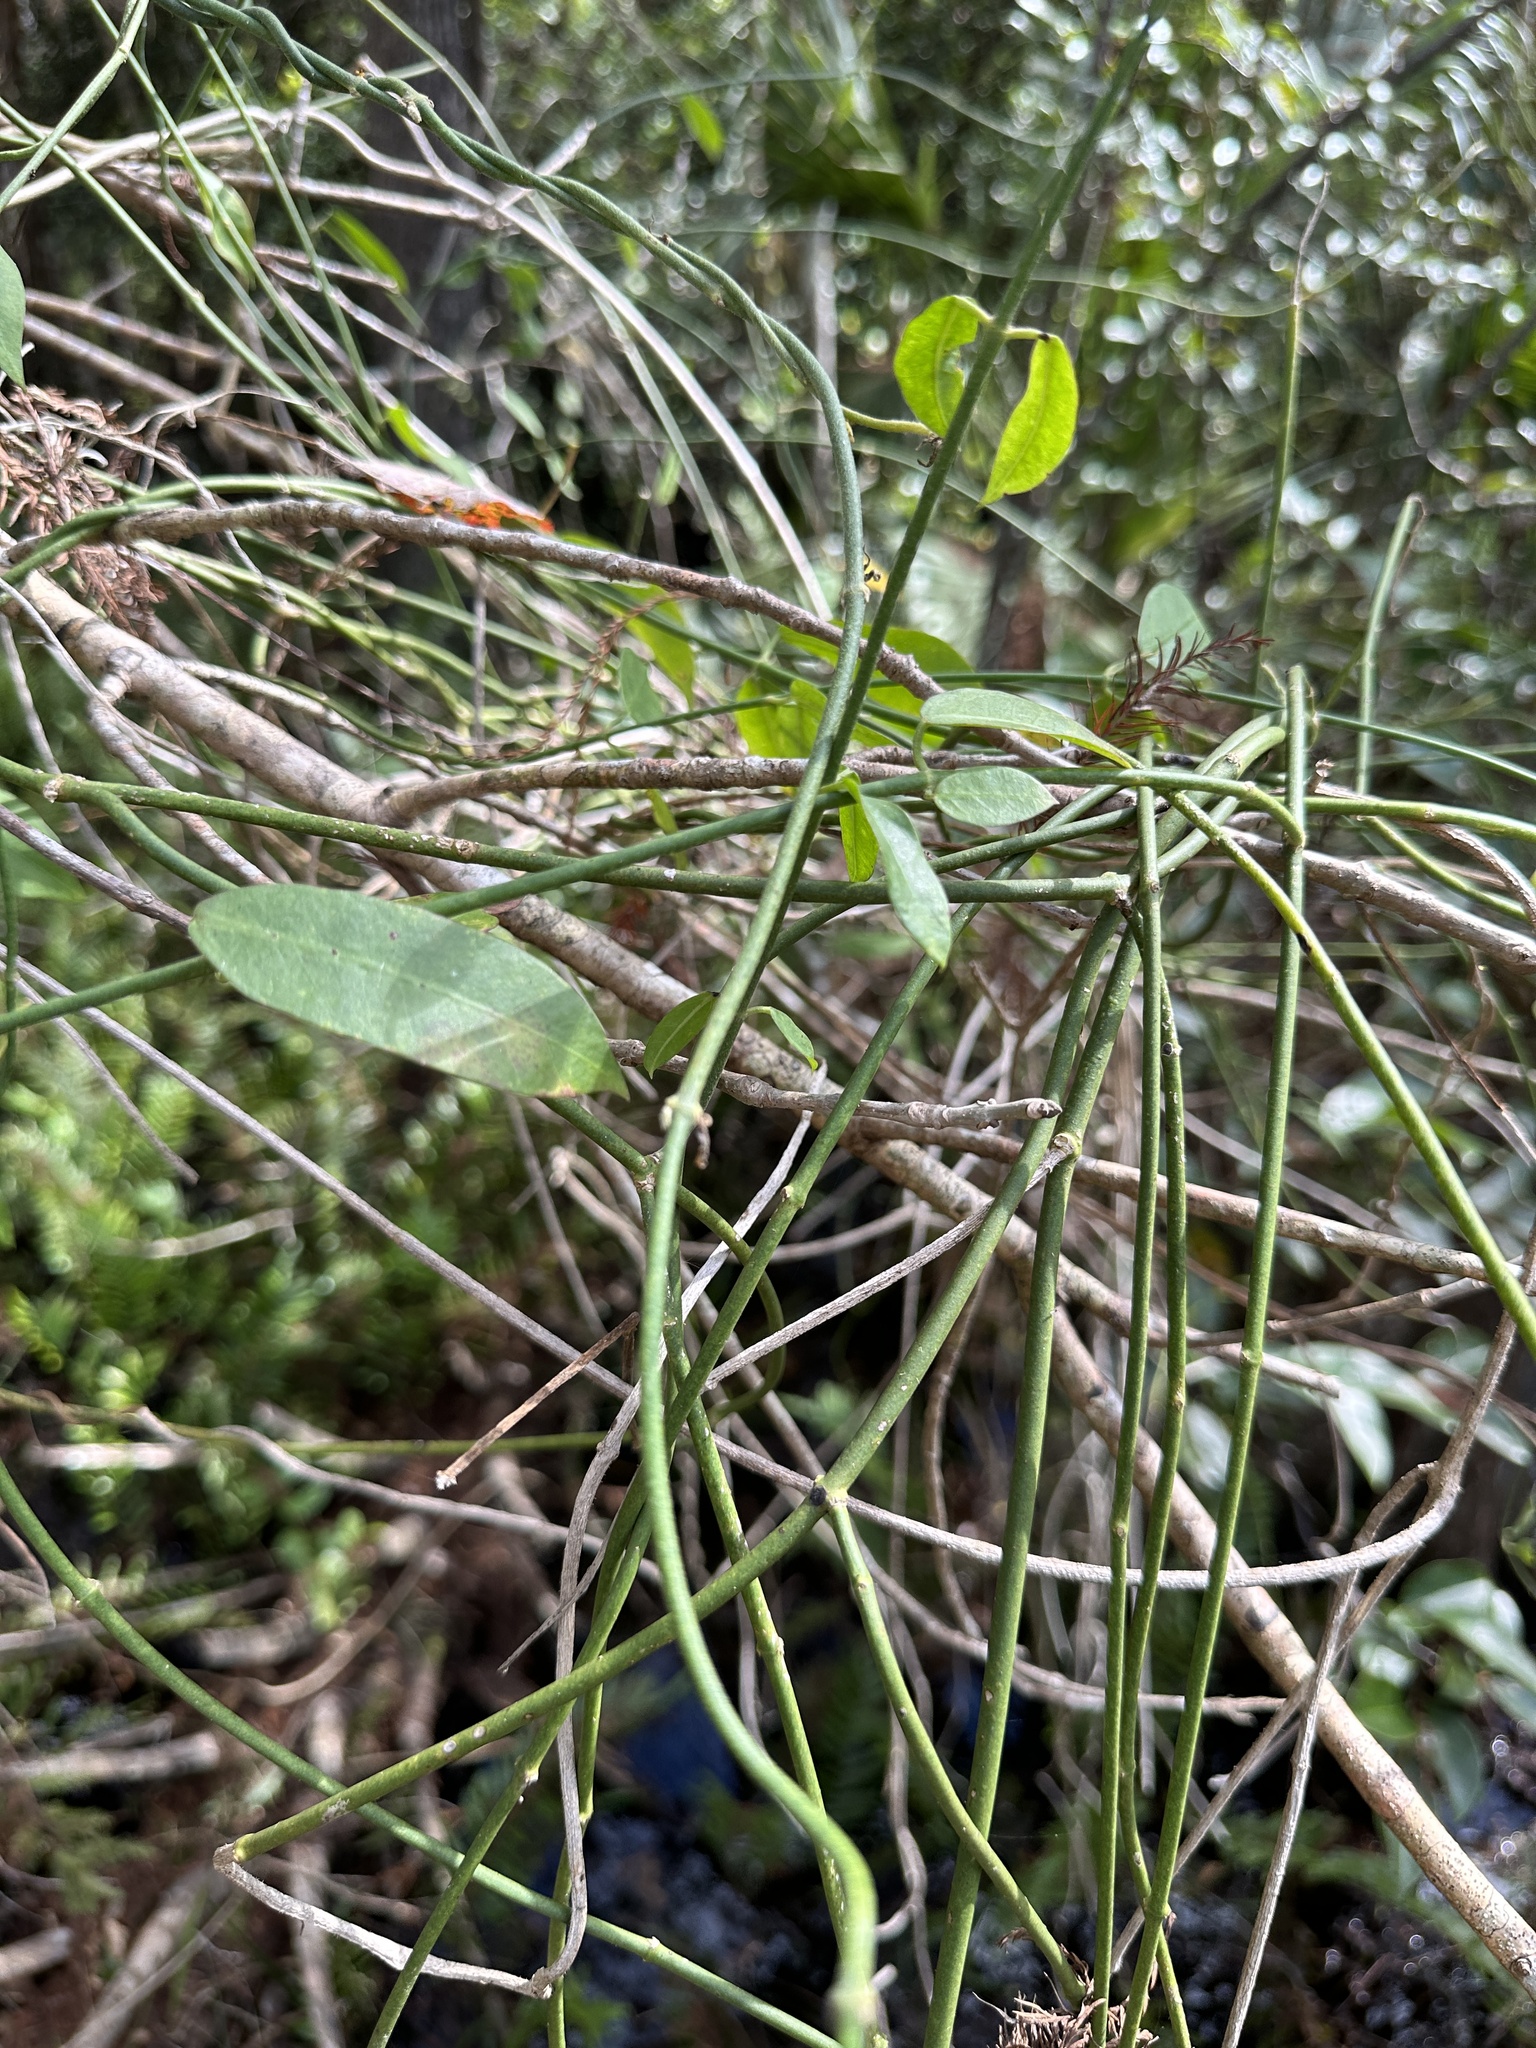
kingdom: Plantae
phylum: Tracheophyta
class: Magnoliopsida
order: Gentianales
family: Apocynaceae
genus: Funastrum
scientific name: Funastrum clausum
